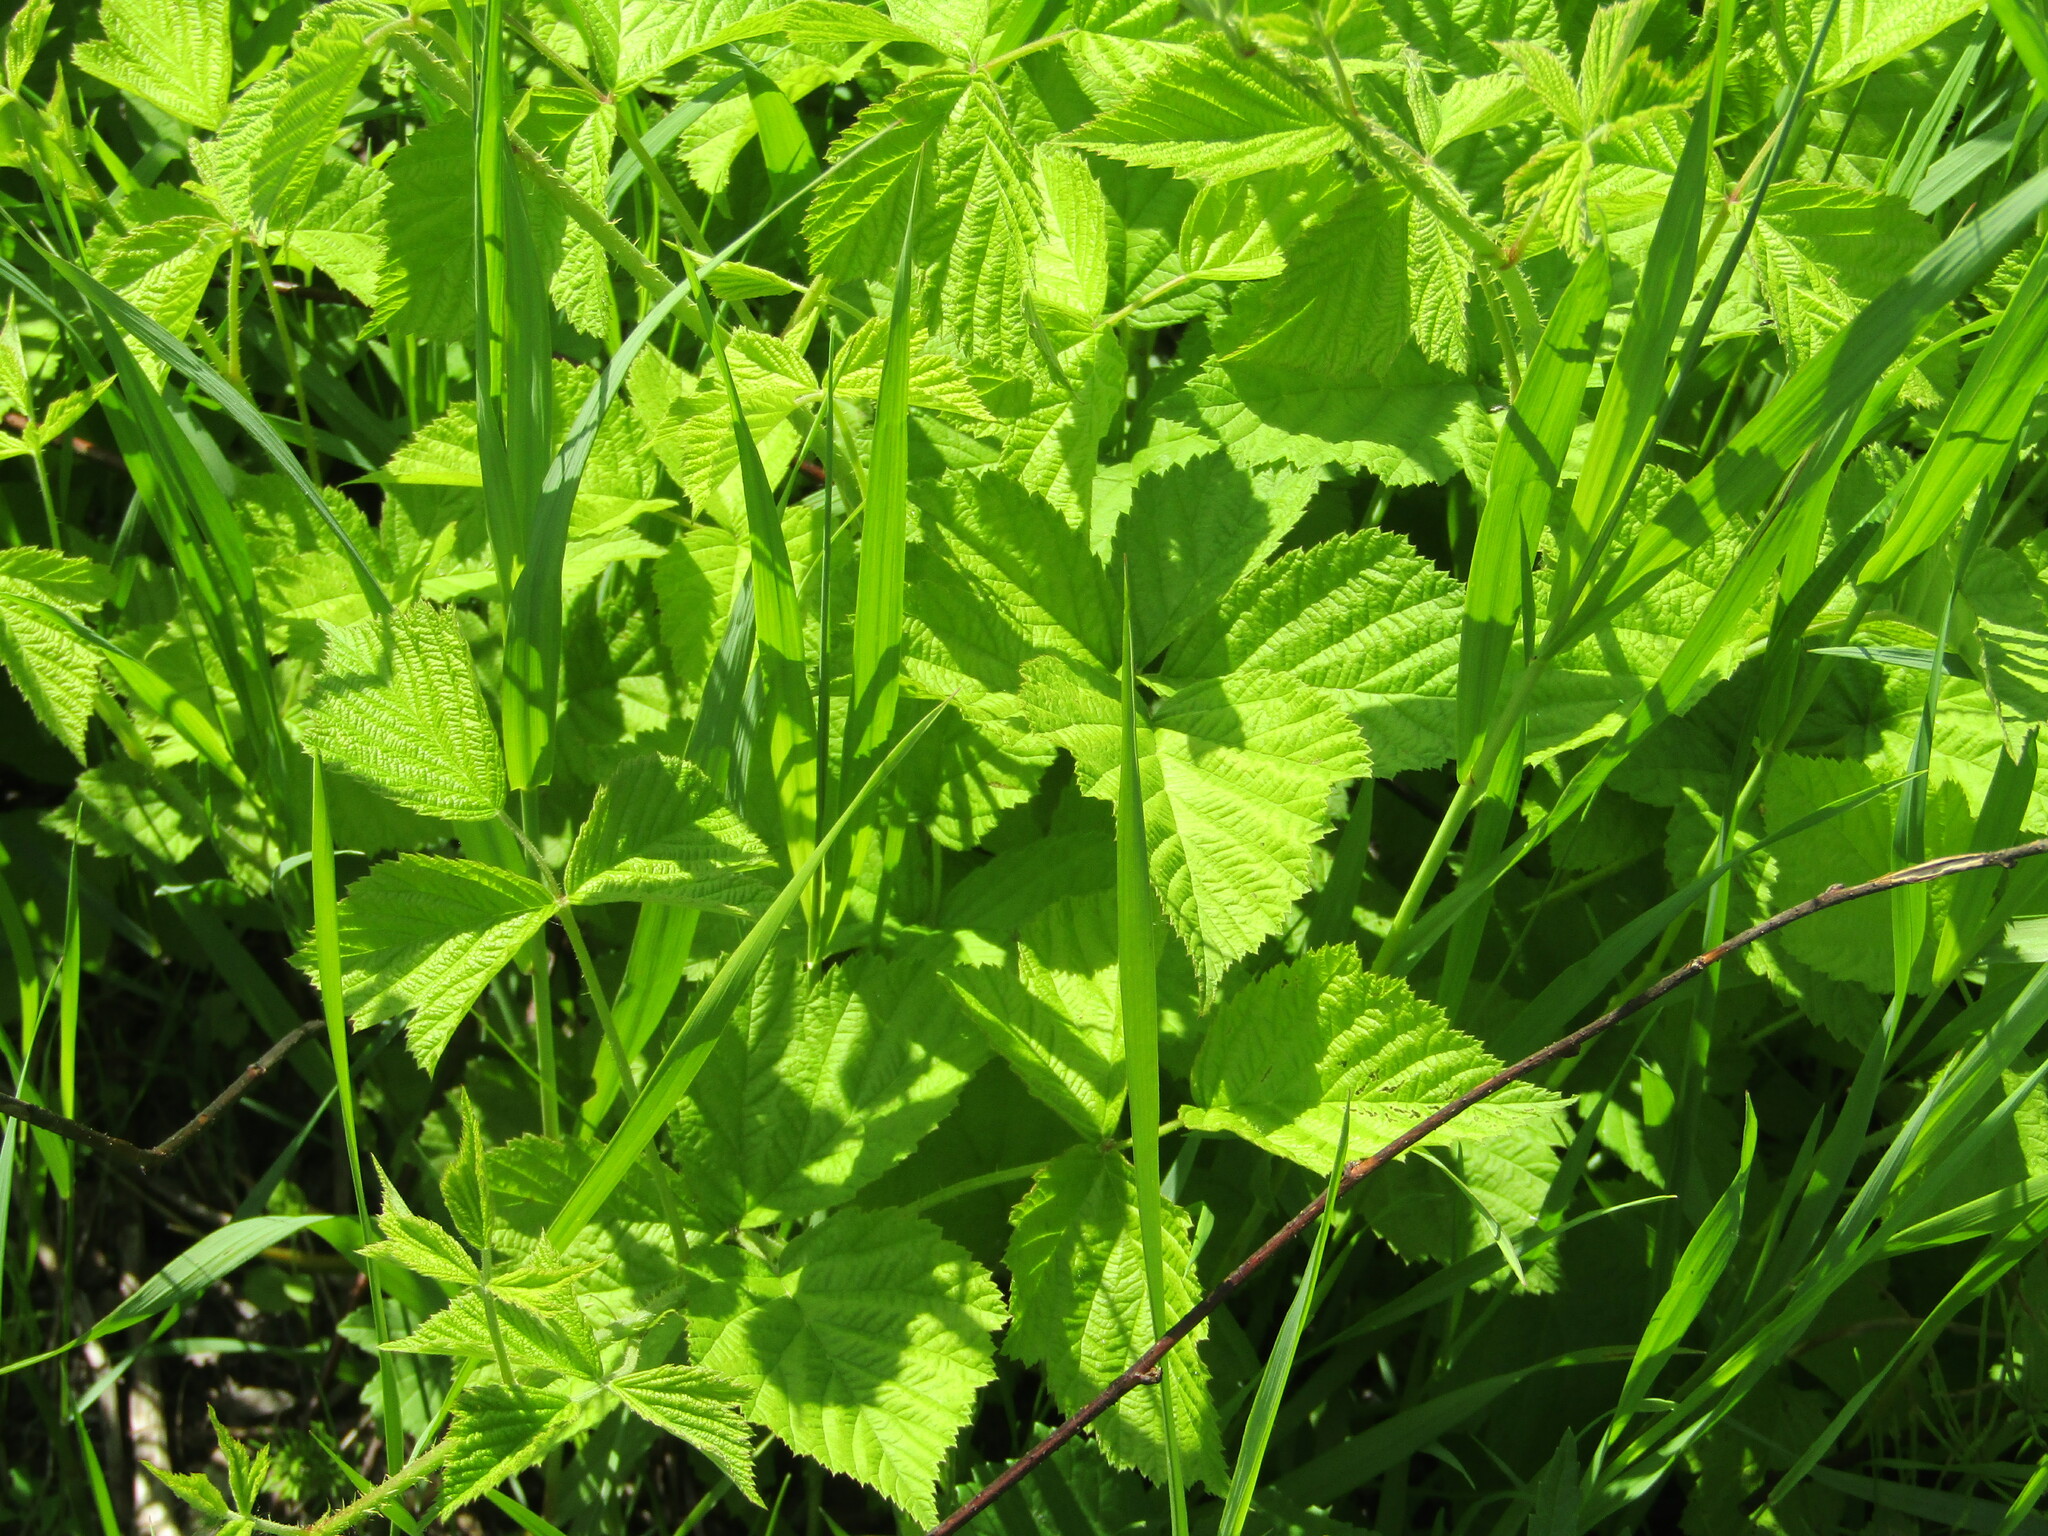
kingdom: Plantae
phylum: Tracheophyta
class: Magnoliopsida
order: Rosales
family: Rosaceae
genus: Rubus
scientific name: Rubus caesius
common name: Dewberry
